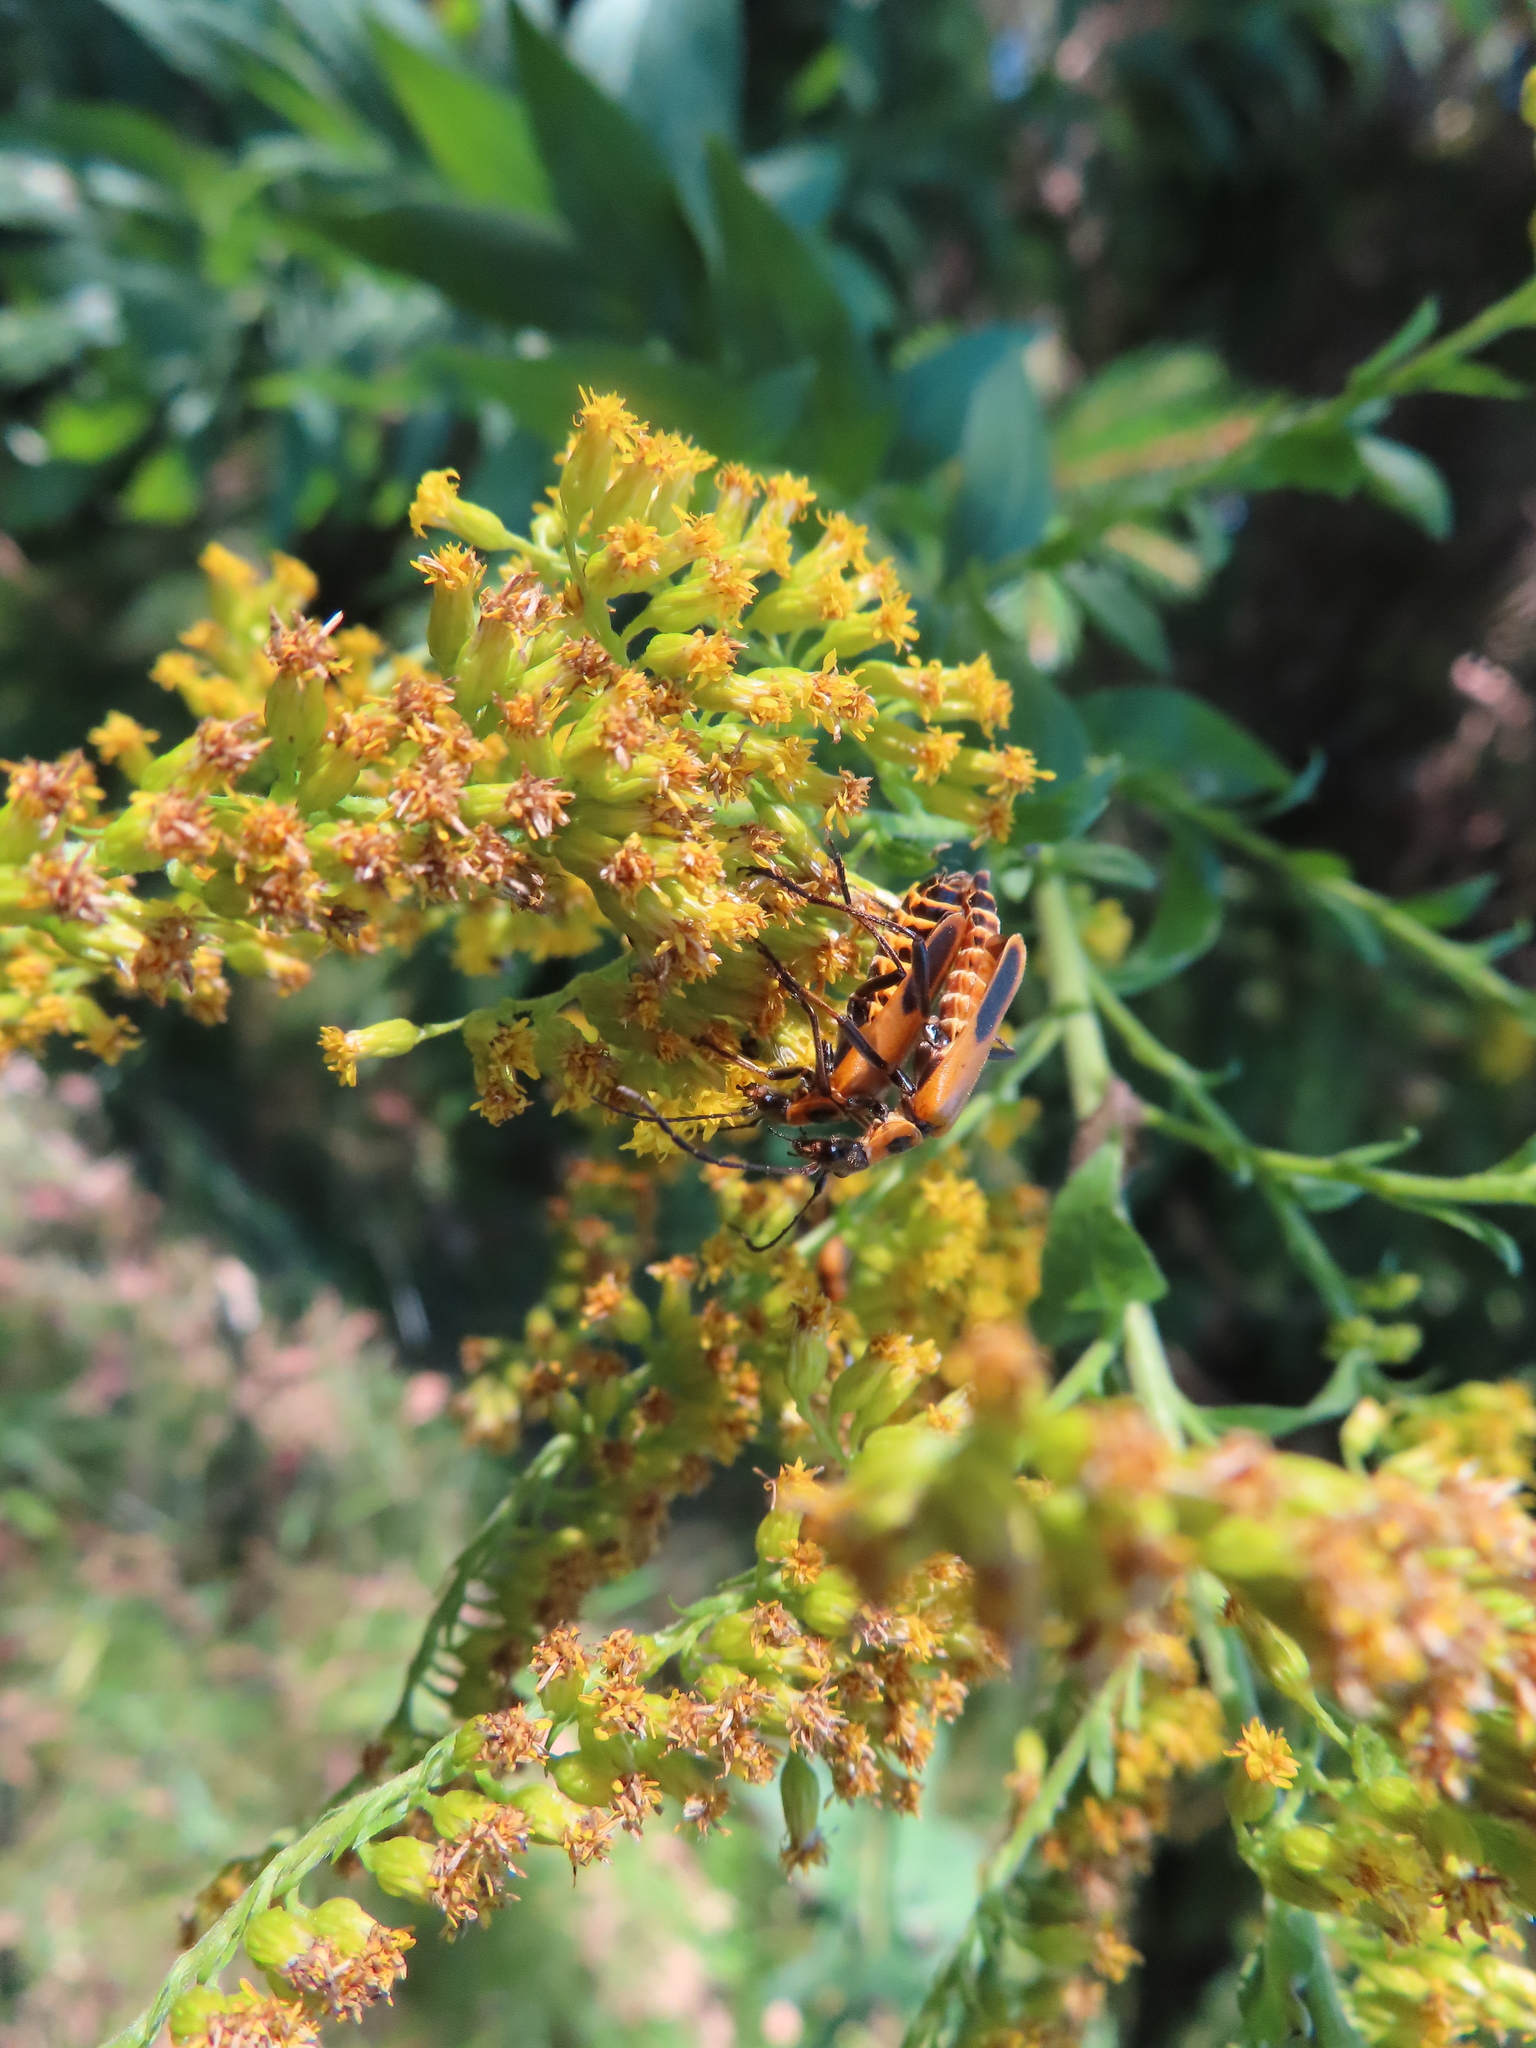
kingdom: Animalia
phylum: Arthropoda
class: Insecta
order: Coleoptera
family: Cantharidae
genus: Chauliognathus
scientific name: Chauliognathus pensylvanicus
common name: Goldenrod soldier beetle
